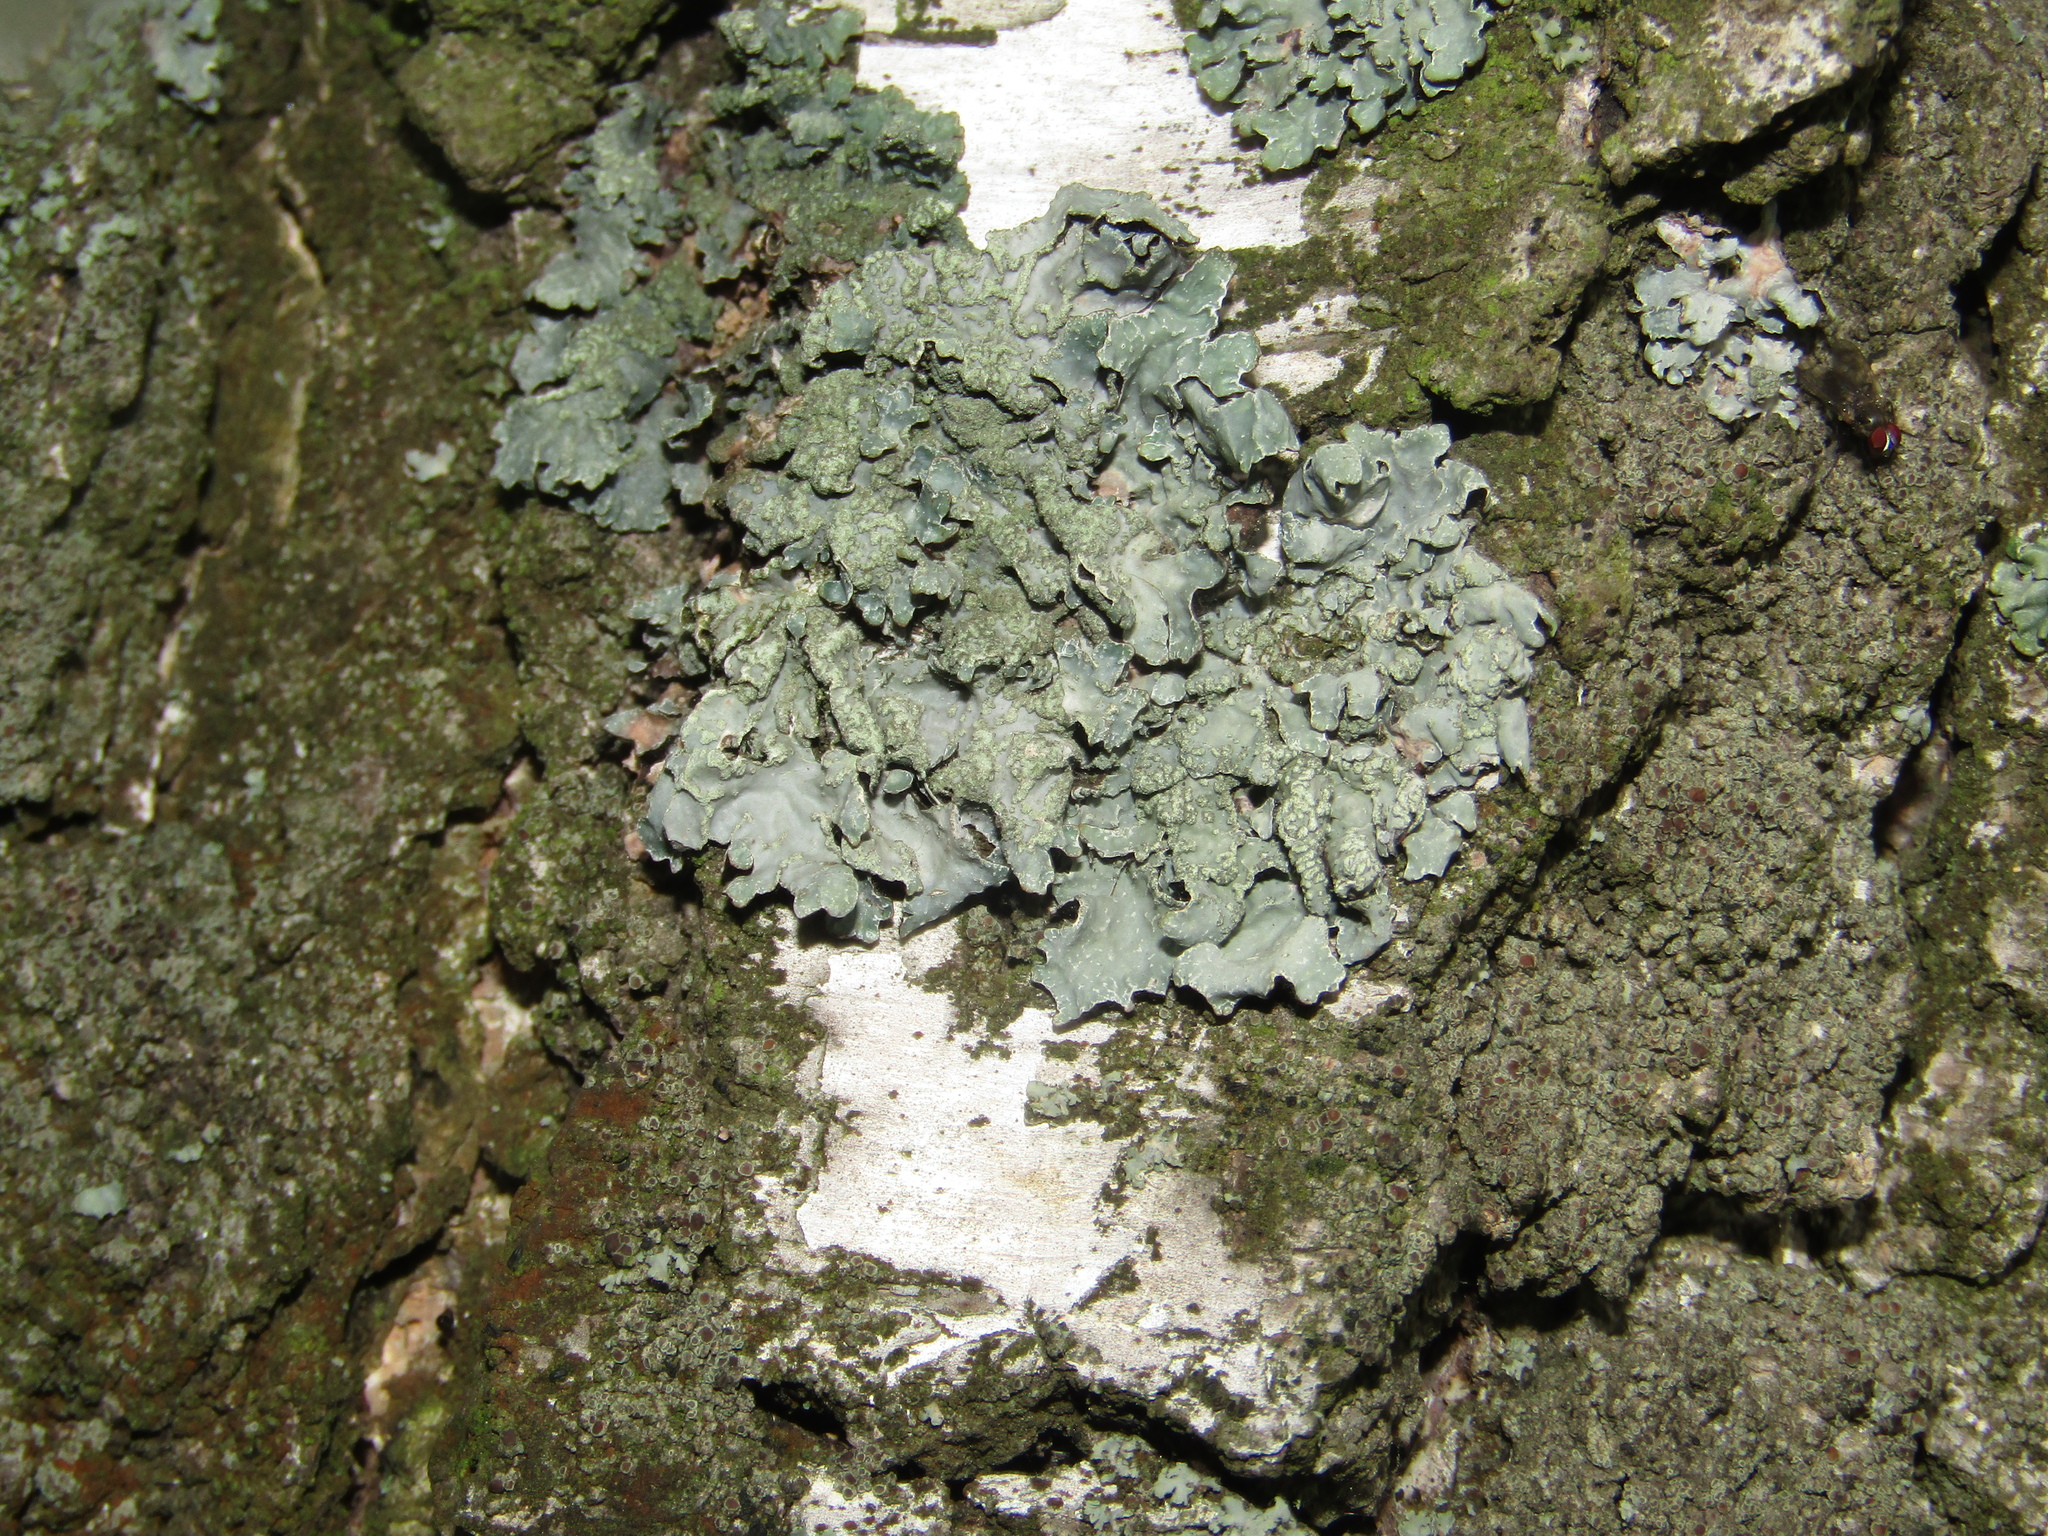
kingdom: Fungi
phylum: Ascomycota
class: Lecanoromycetes
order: Lecanorales
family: Parmeliaceae
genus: Parmelia
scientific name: Parmelia sulcata
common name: Netted shield lichen
